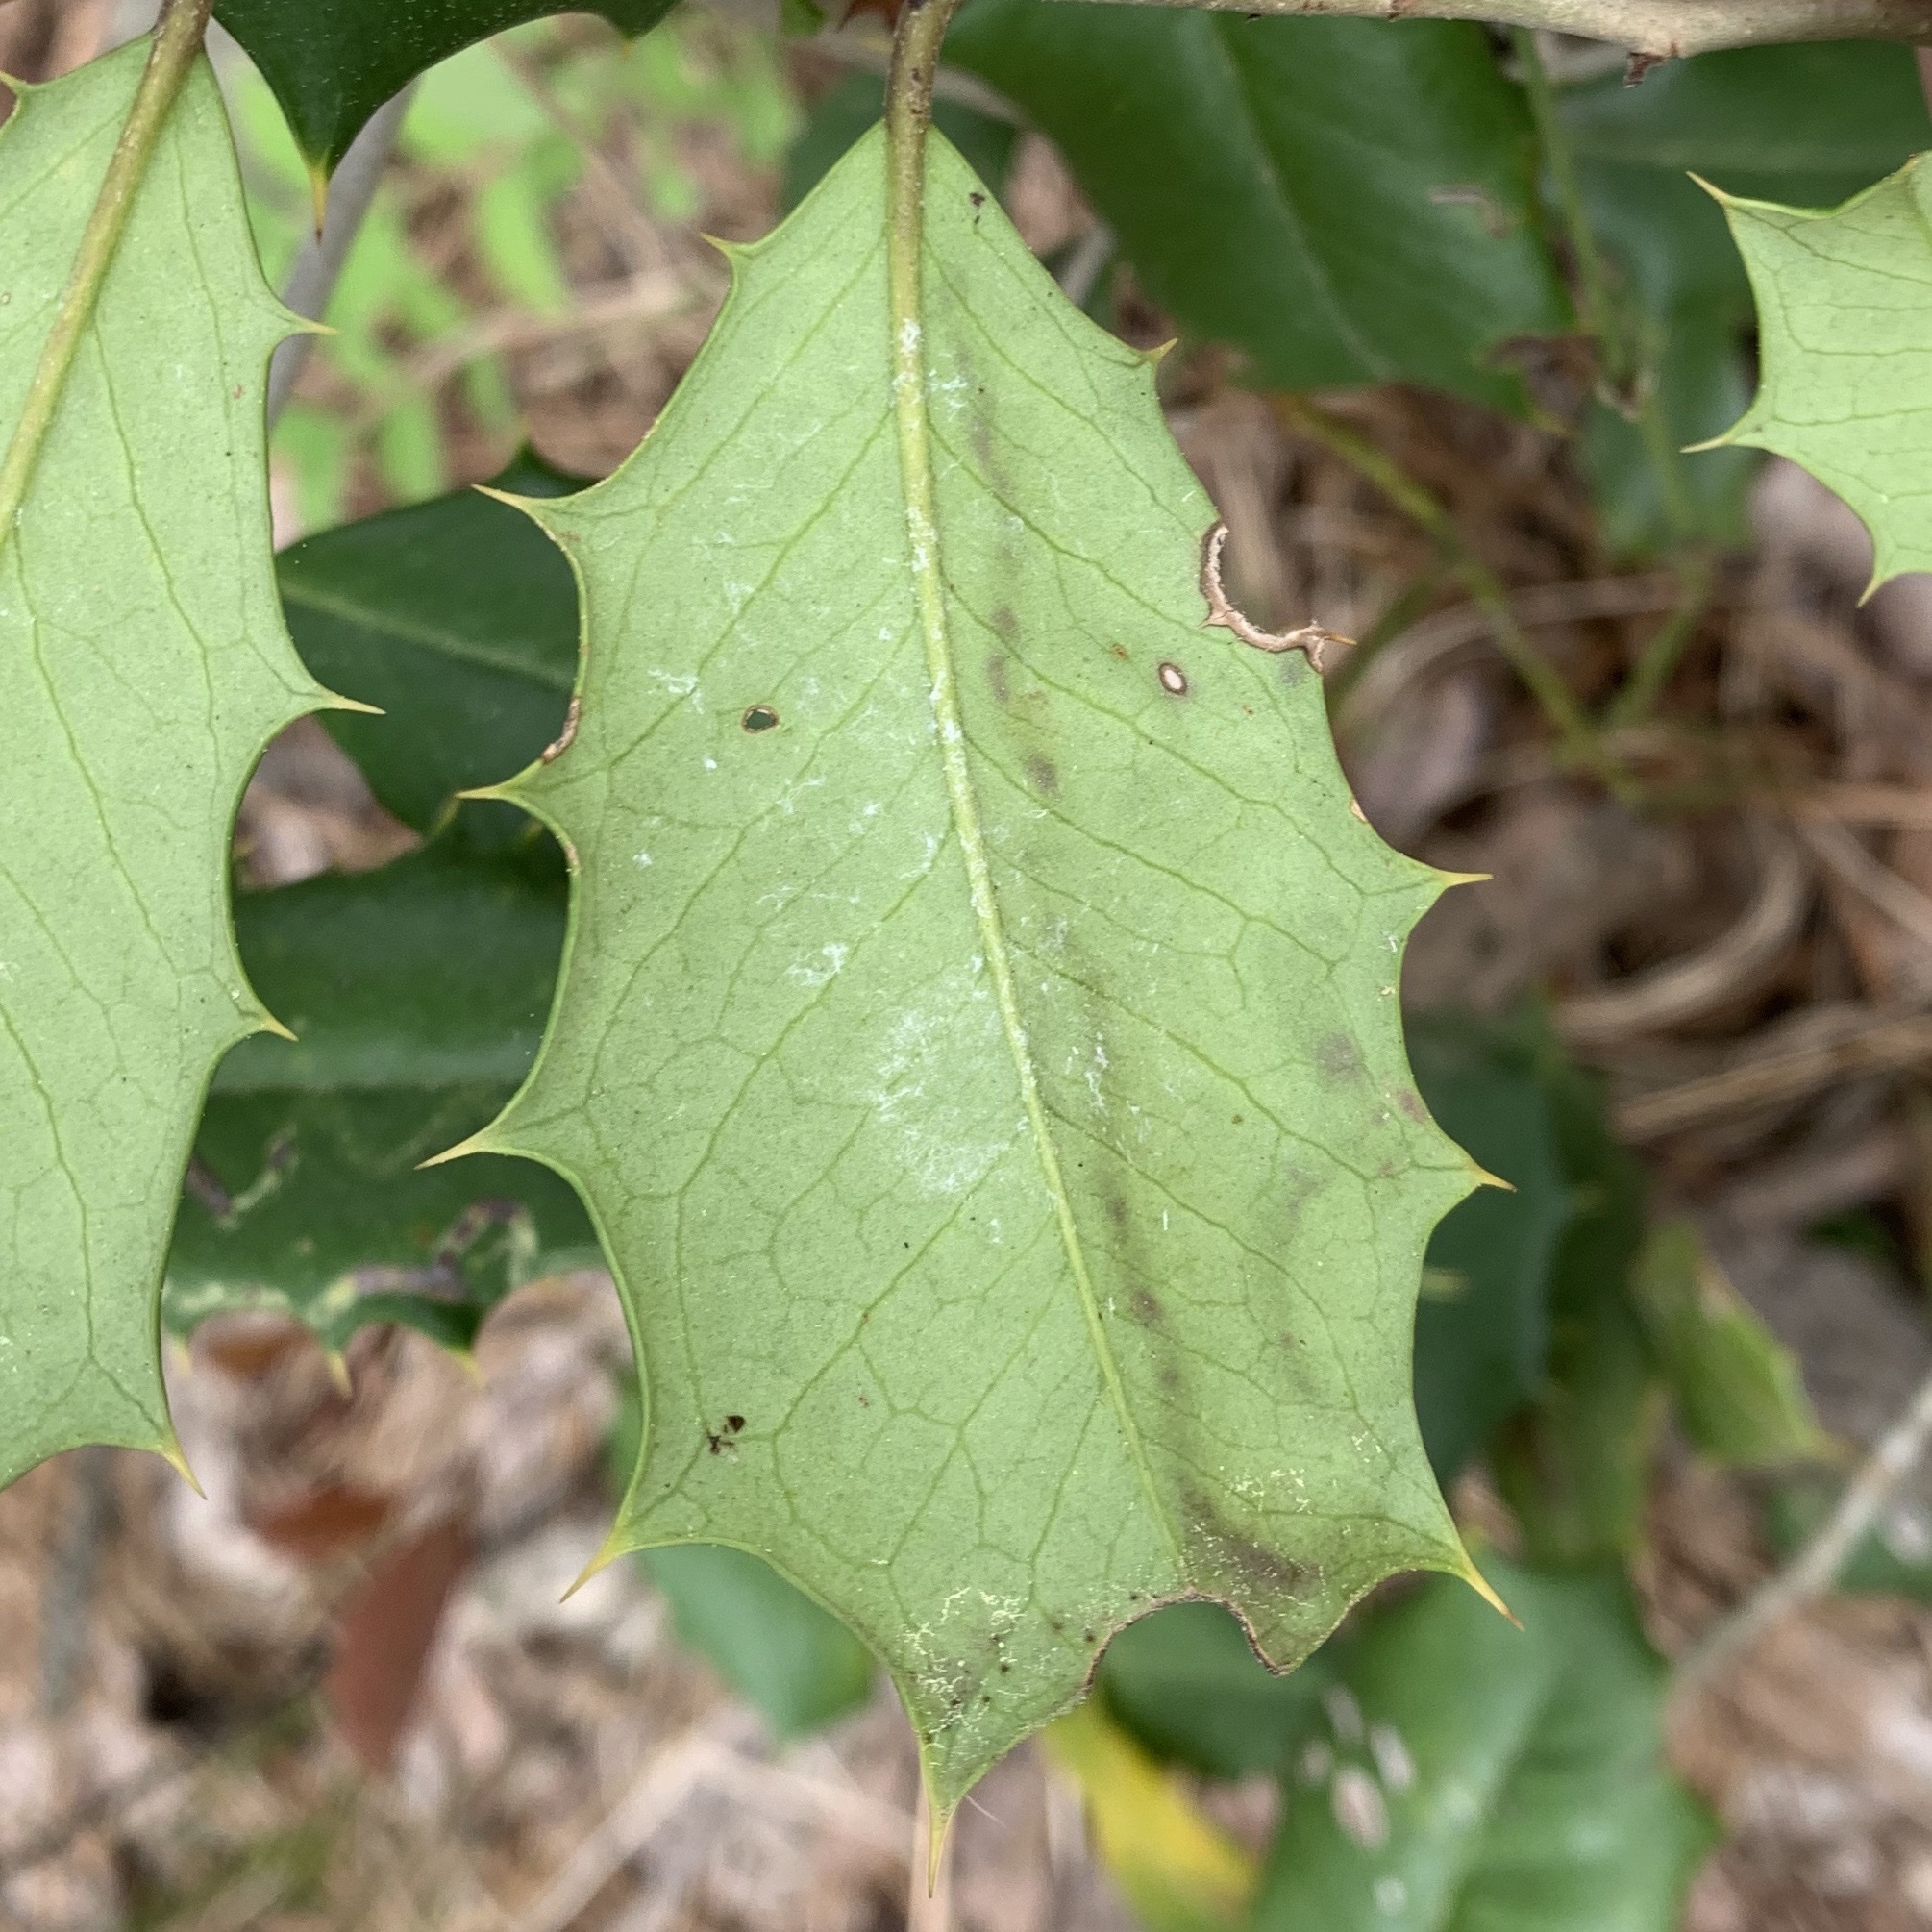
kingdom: Animalia
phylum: Arthropoda
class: Insecta
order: Diptera
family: Agromyzidae
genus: Phytomyza
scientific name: Phytomyza opacae
